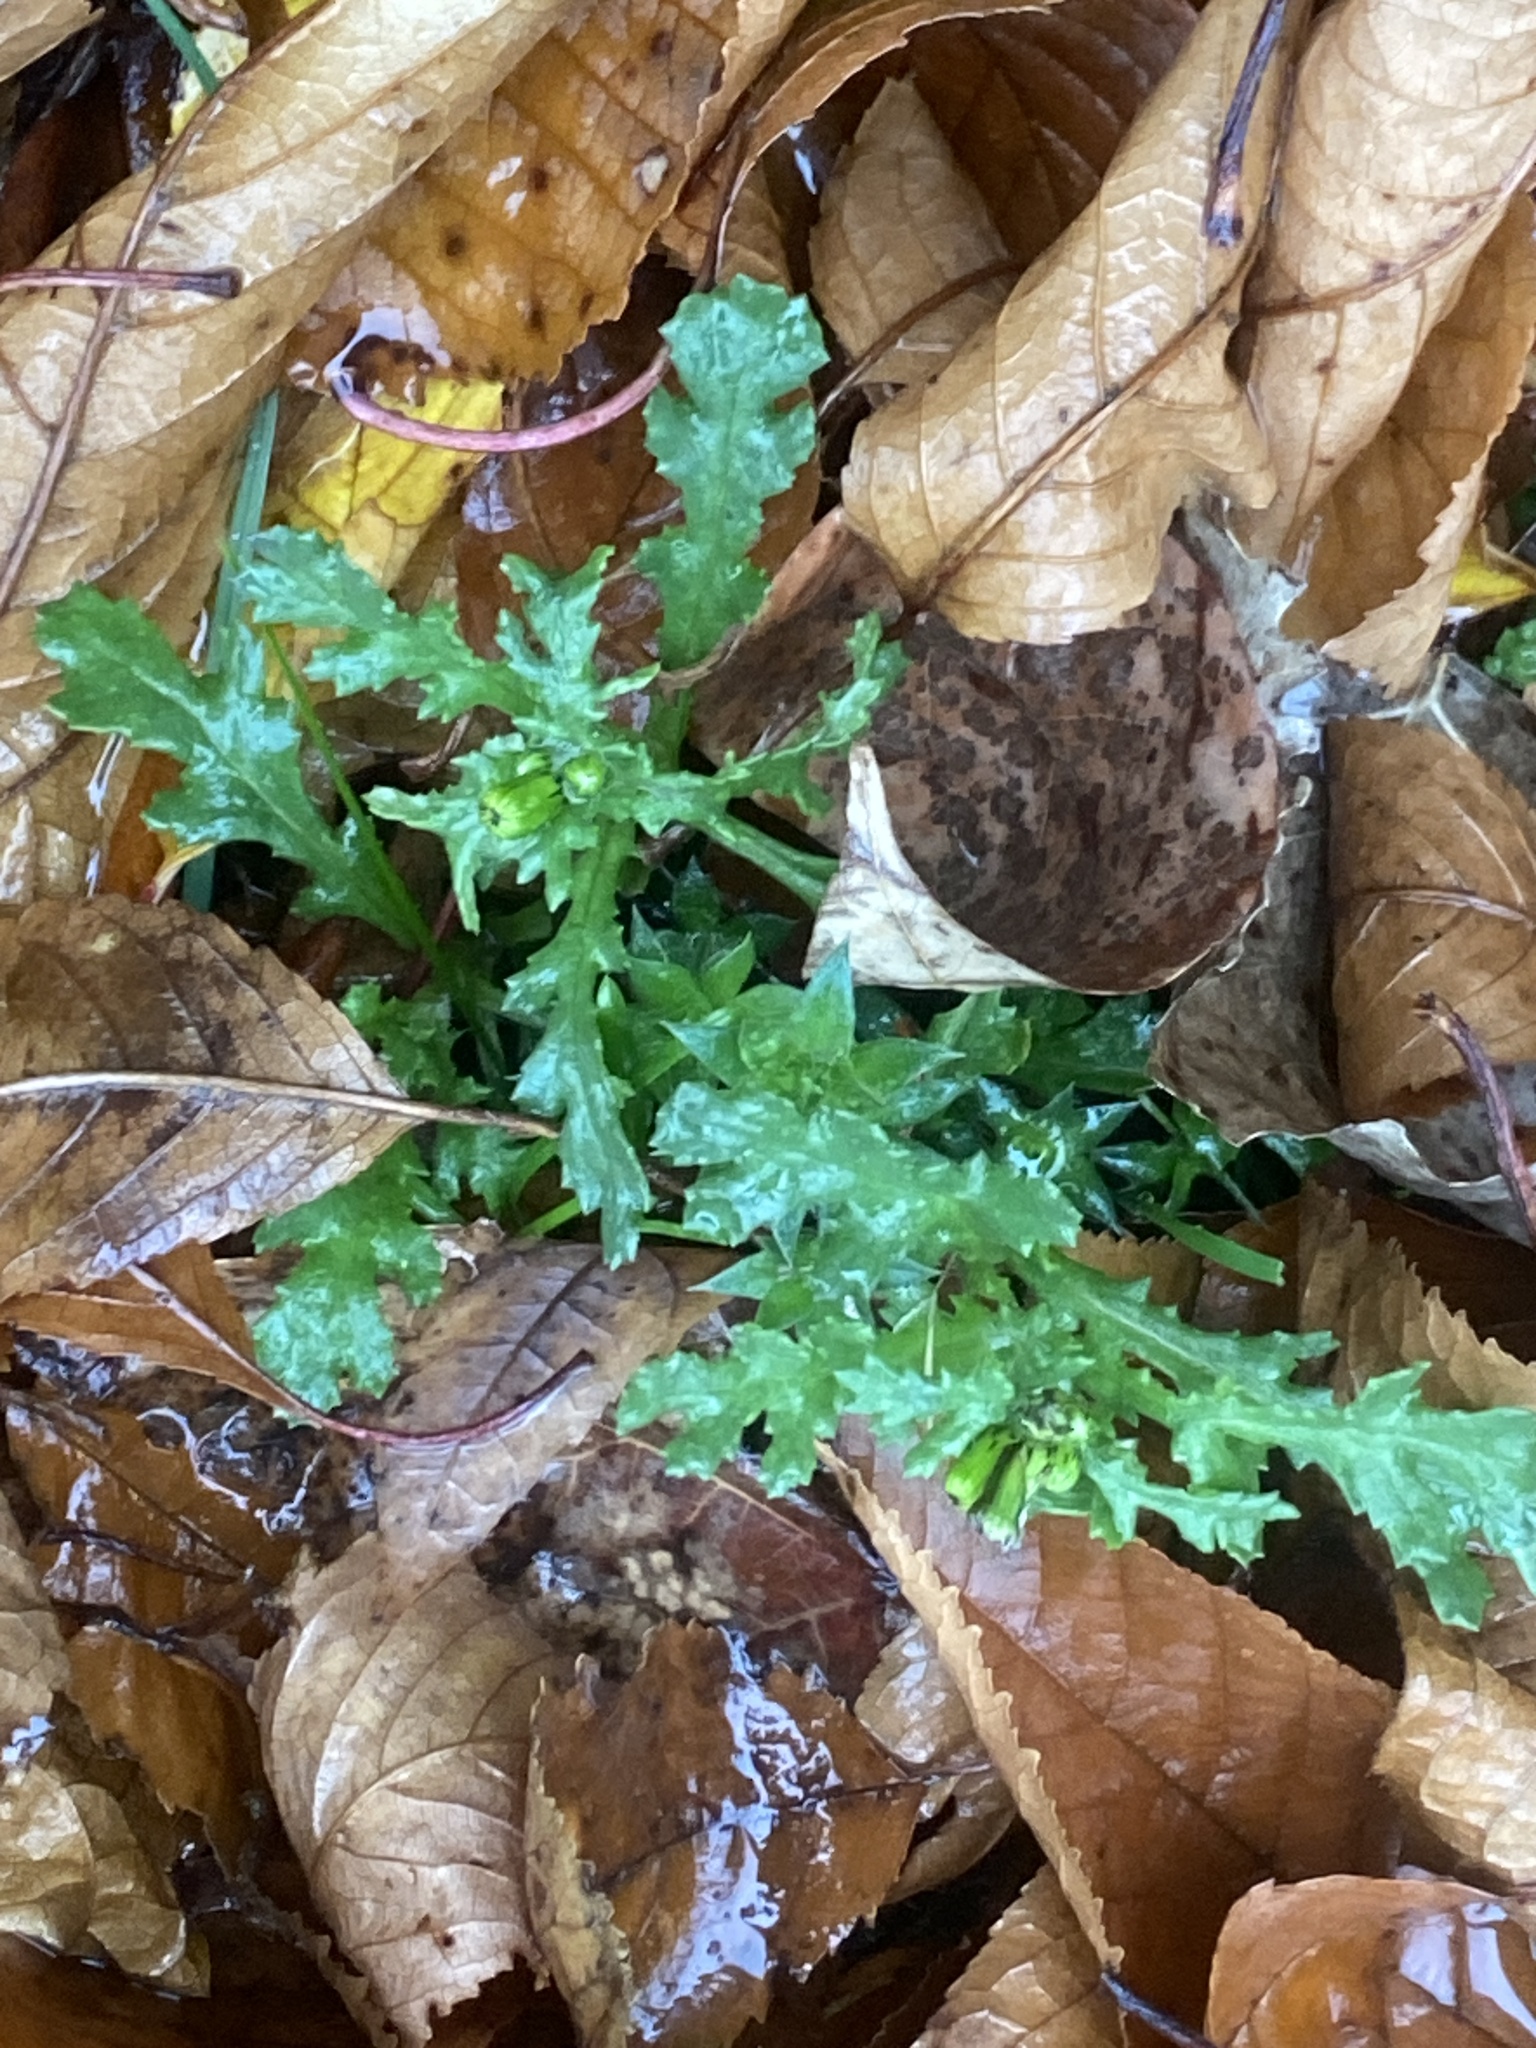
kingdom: Plantae
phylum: Tracheophyta
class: Magnoliopsida
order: Asterales
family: Asteraceae
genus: Senecio
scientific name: Senecio vulgaris
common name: Old-man-in-the-spring
